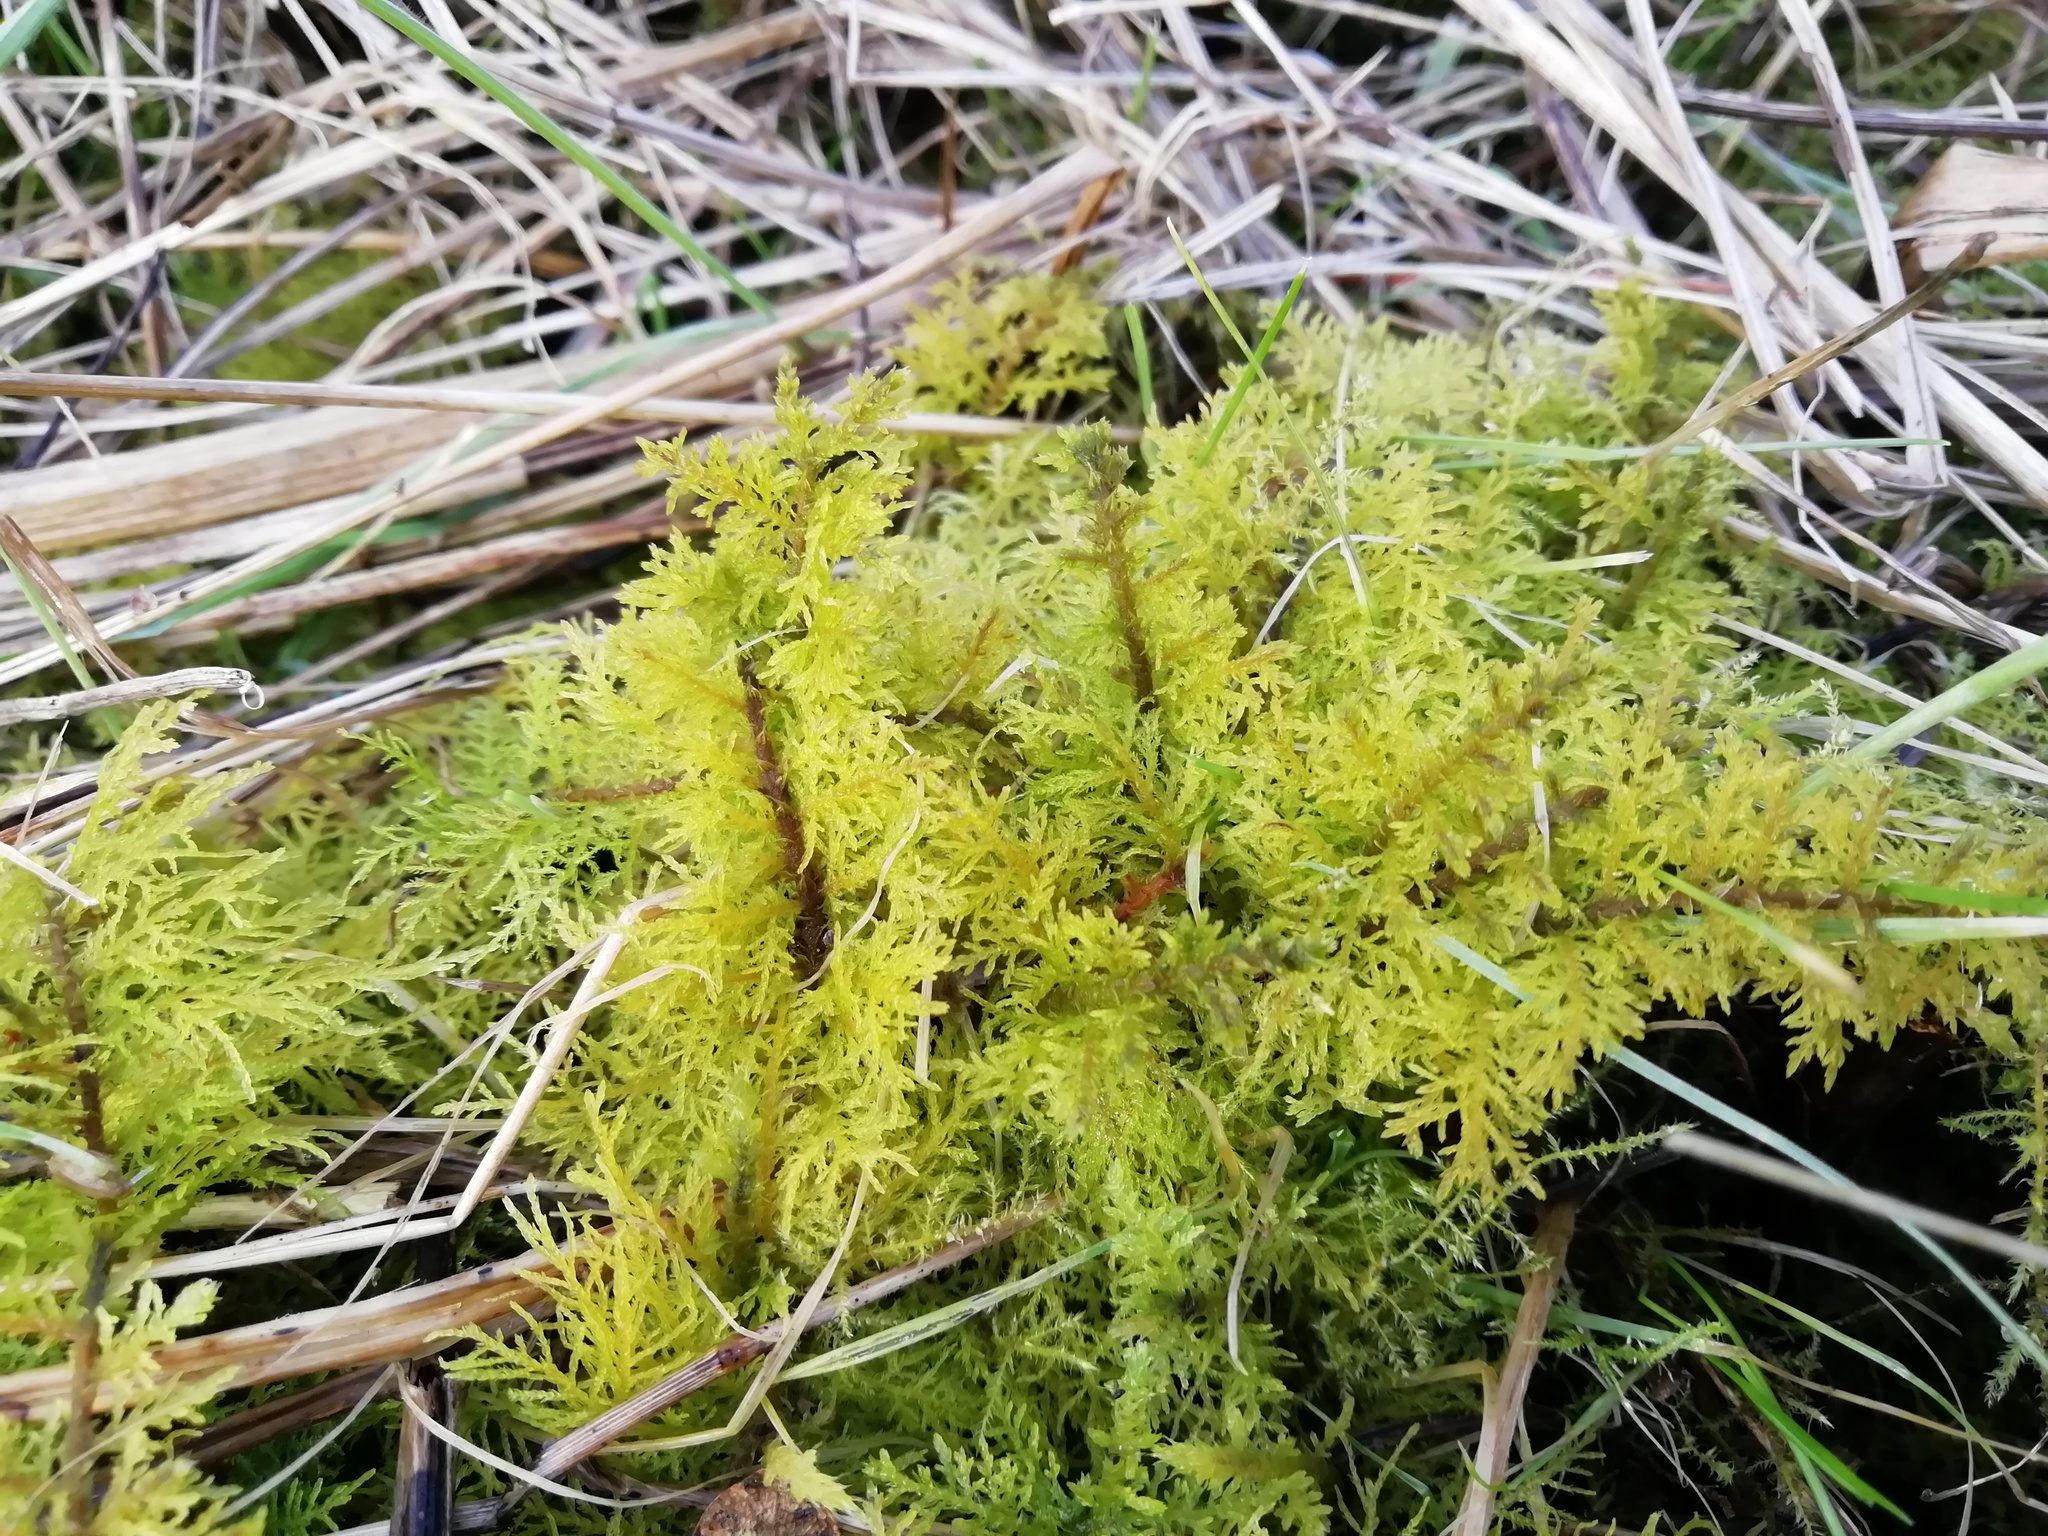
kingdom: Plantae
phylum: Bryophyta
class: Bryopsida
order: Hypnales
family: Thuidiaceae
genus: Thuidium
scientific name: Thuidium tamariscinum
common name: Common tamarisk-moss
